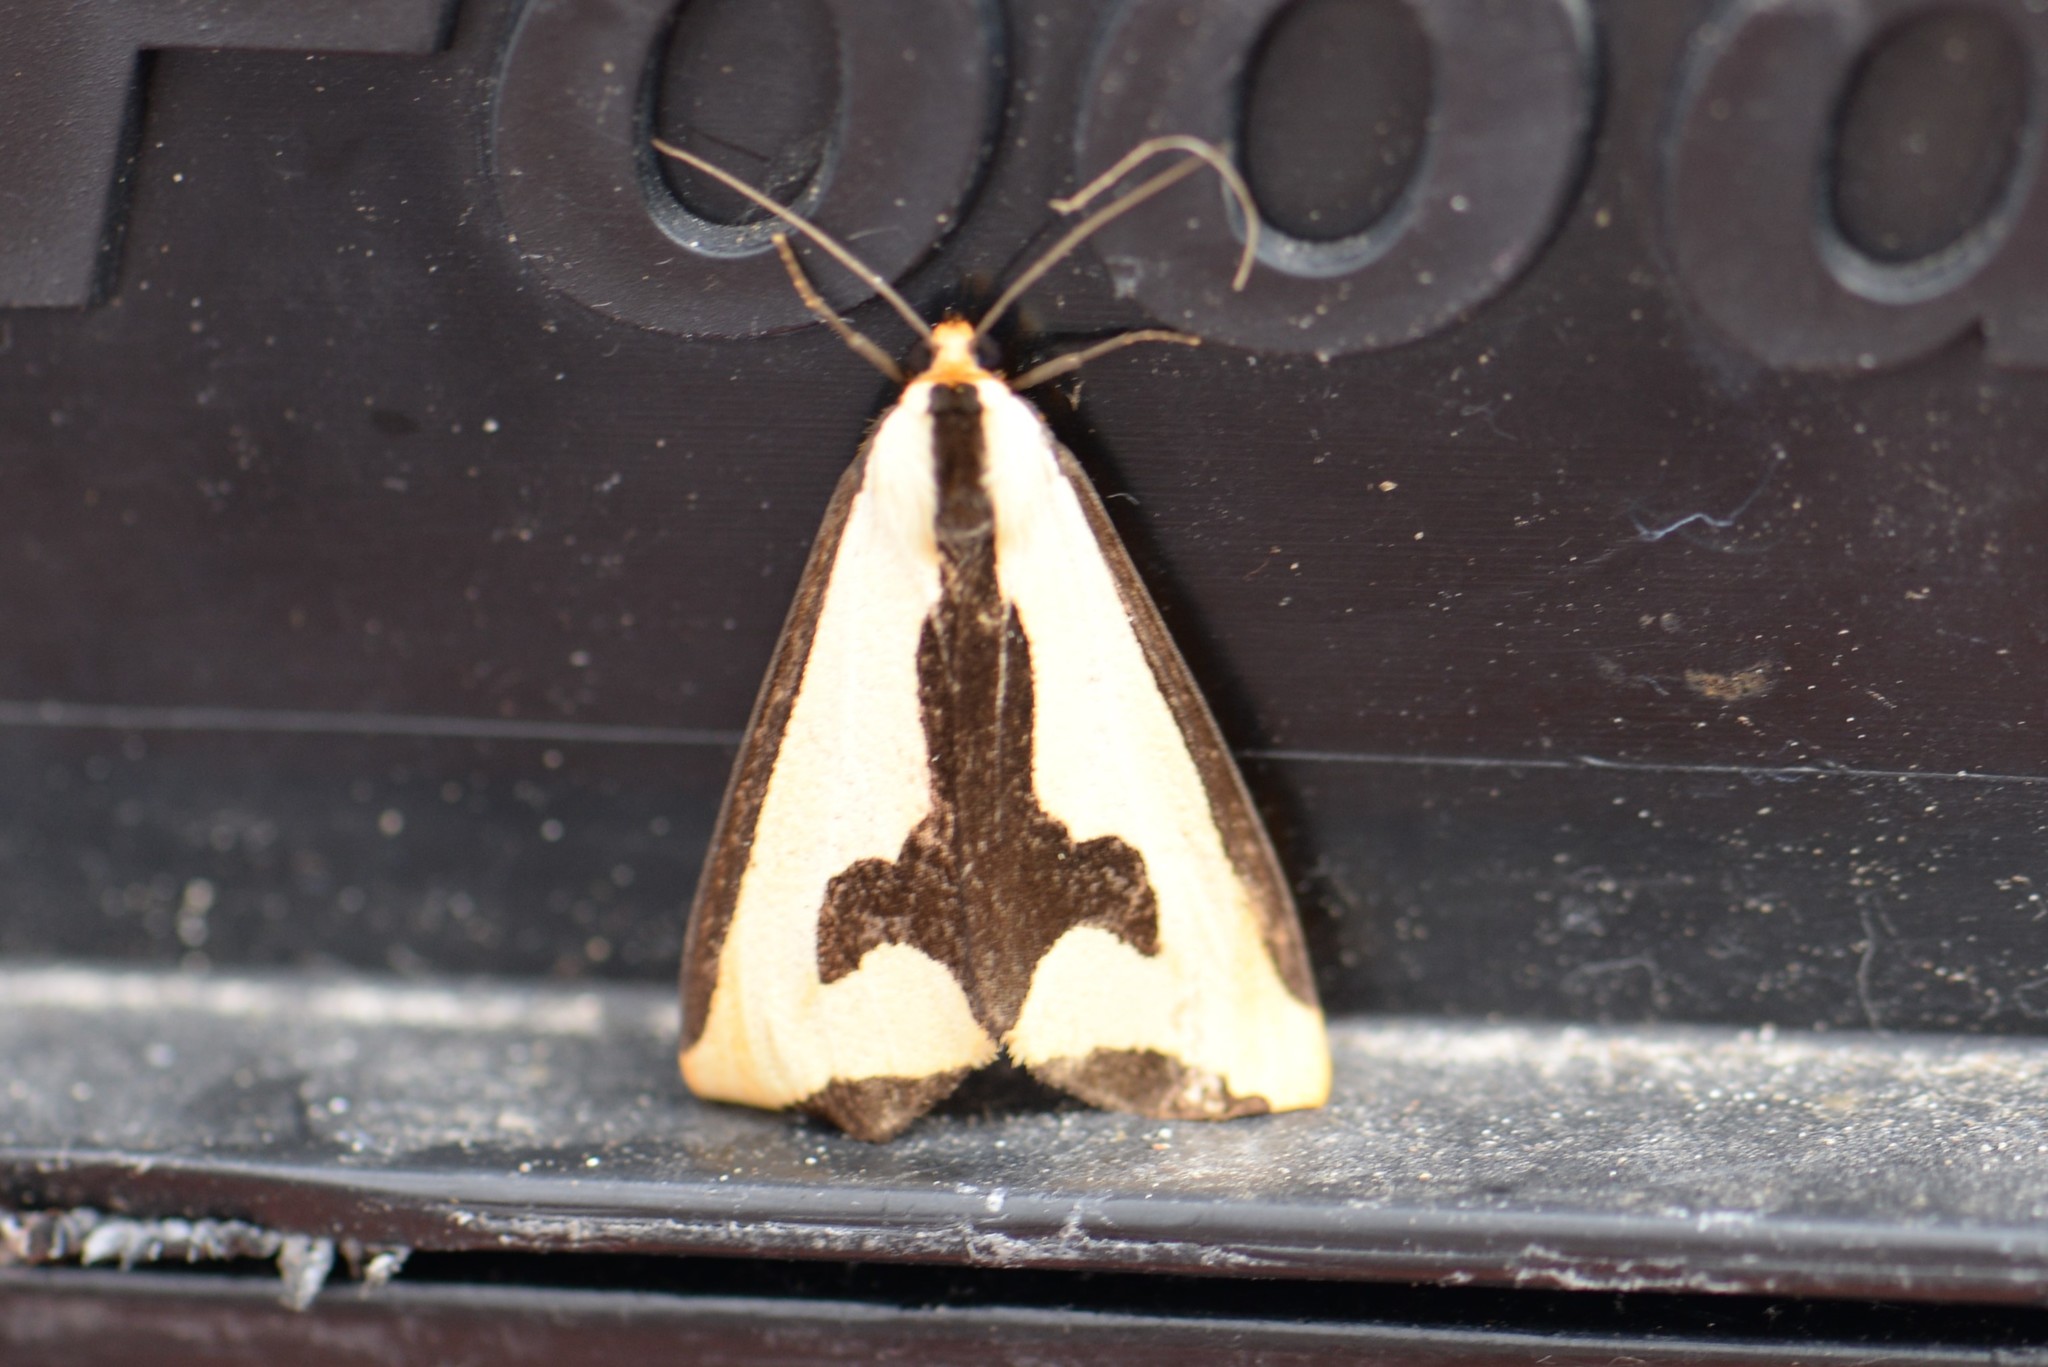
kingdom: Animalia
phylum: Arthropoda
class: Insecta
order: Lepidoptera
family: Erebidae
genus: Haploa
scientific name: Haploa clymene
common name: Clymene moth
